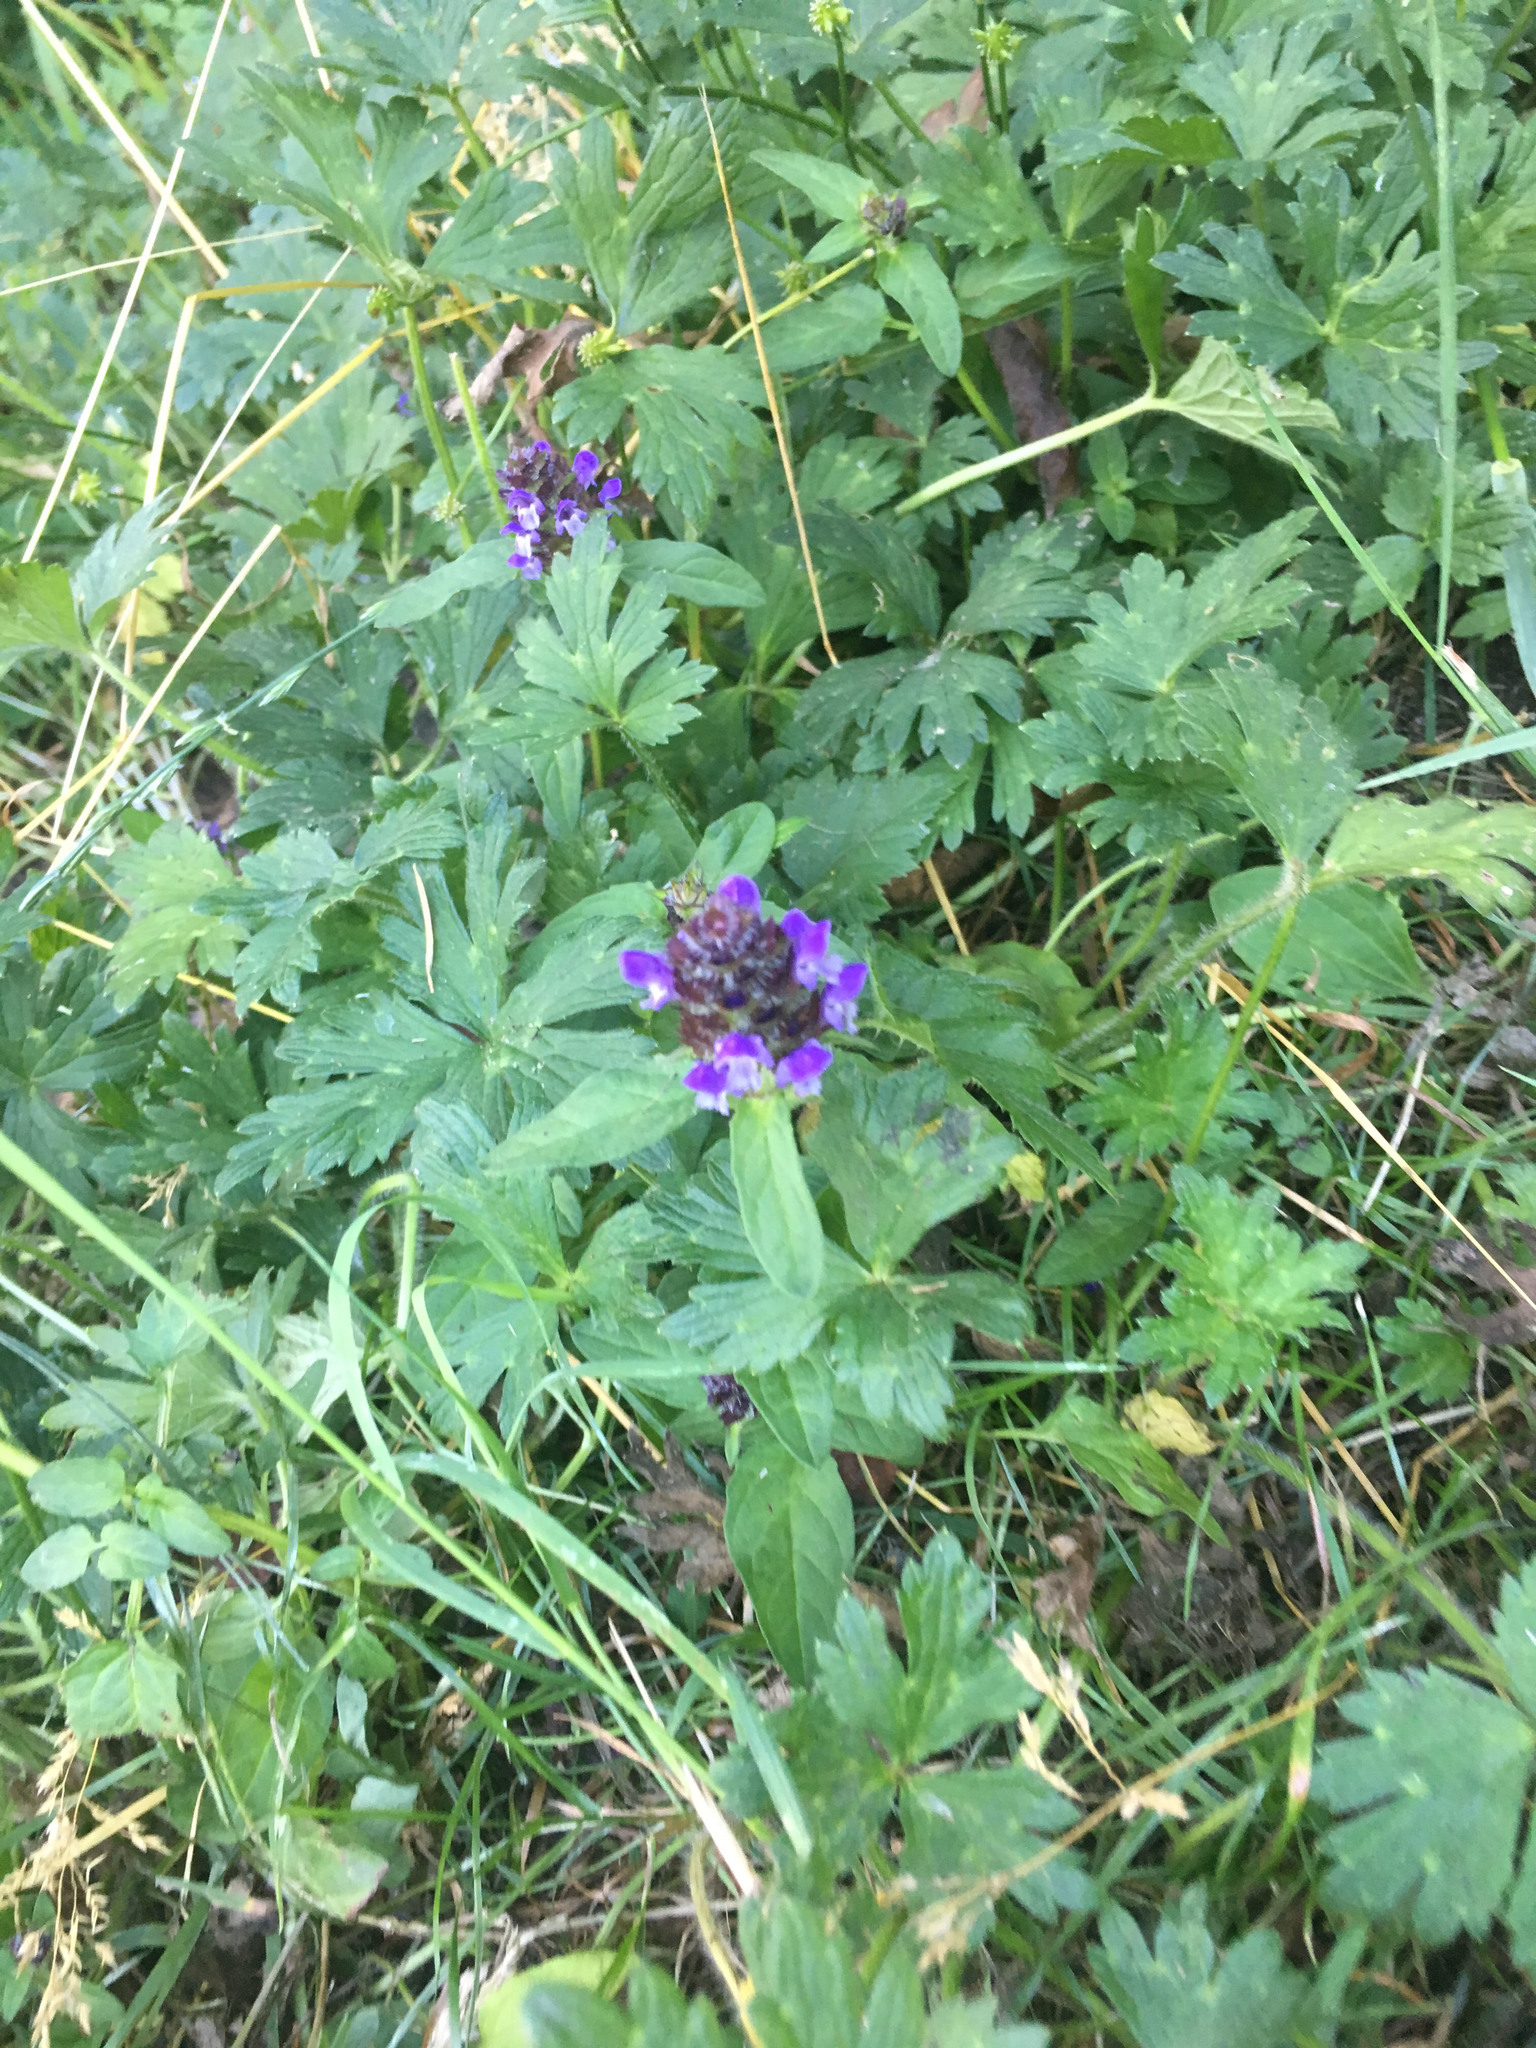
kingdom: Plantae
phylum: Tracheophyta
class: Magnoliopsida
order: Lamiales
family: Lamiaceae
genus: Prunella
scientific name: Prunella vulgaris
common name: Heal-all
